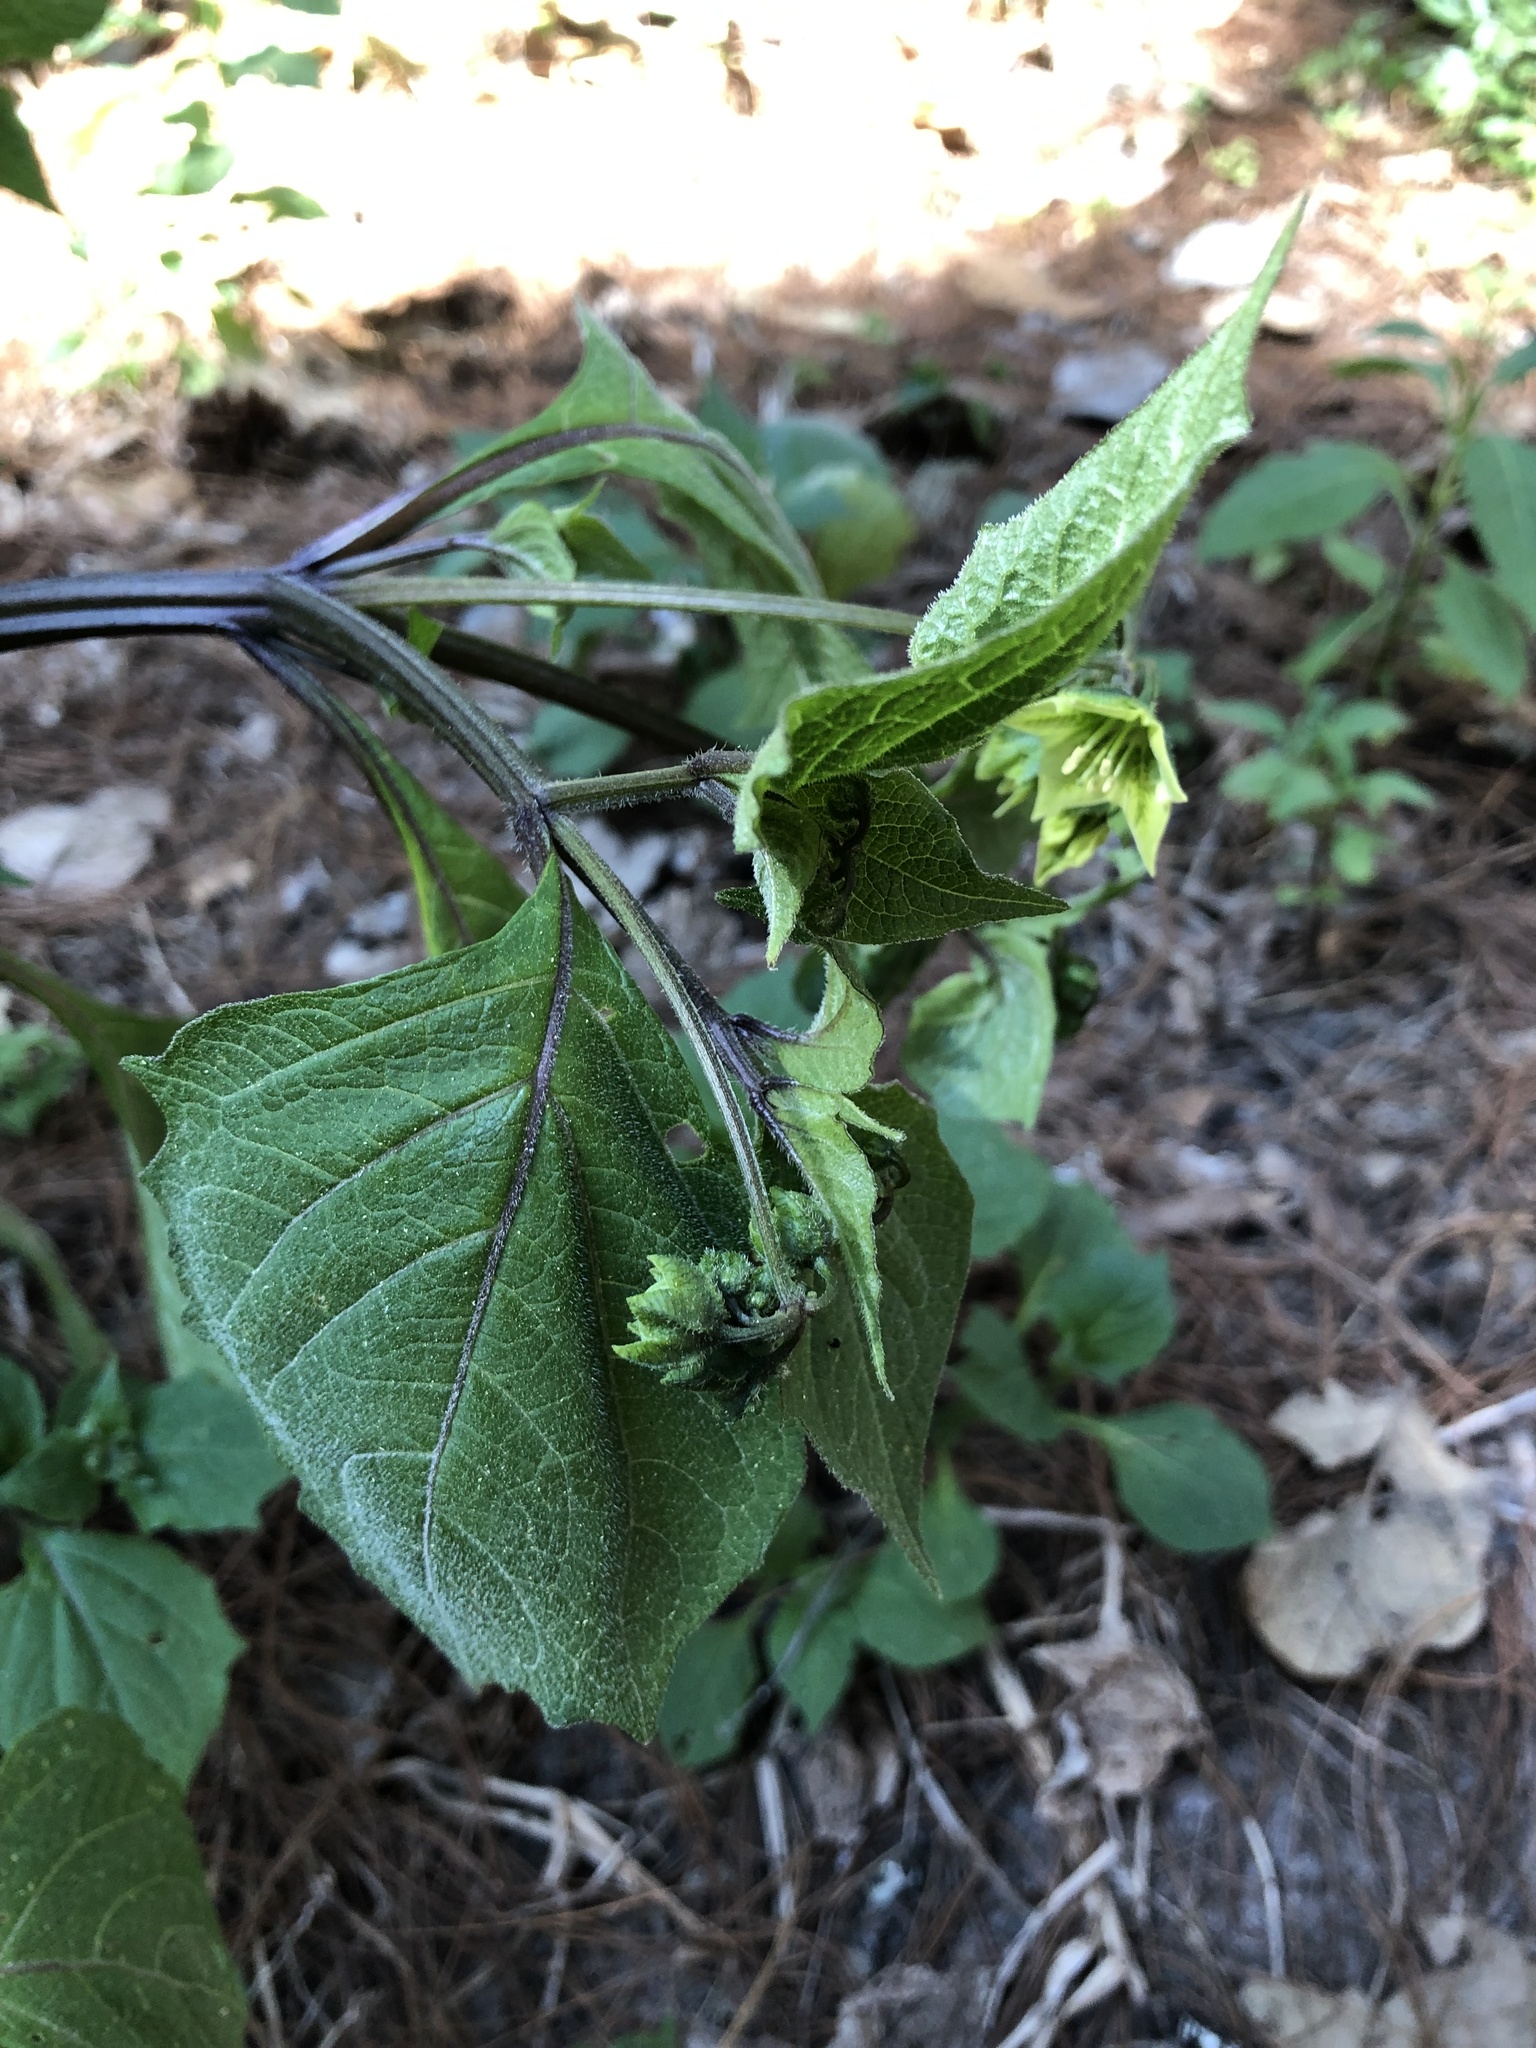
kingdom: Plantae
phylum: Tracheophyta
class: Magnoliopsida
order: Solanales
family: Solanaceae
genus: Jaltomata
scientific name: Jaltomata procumbens
